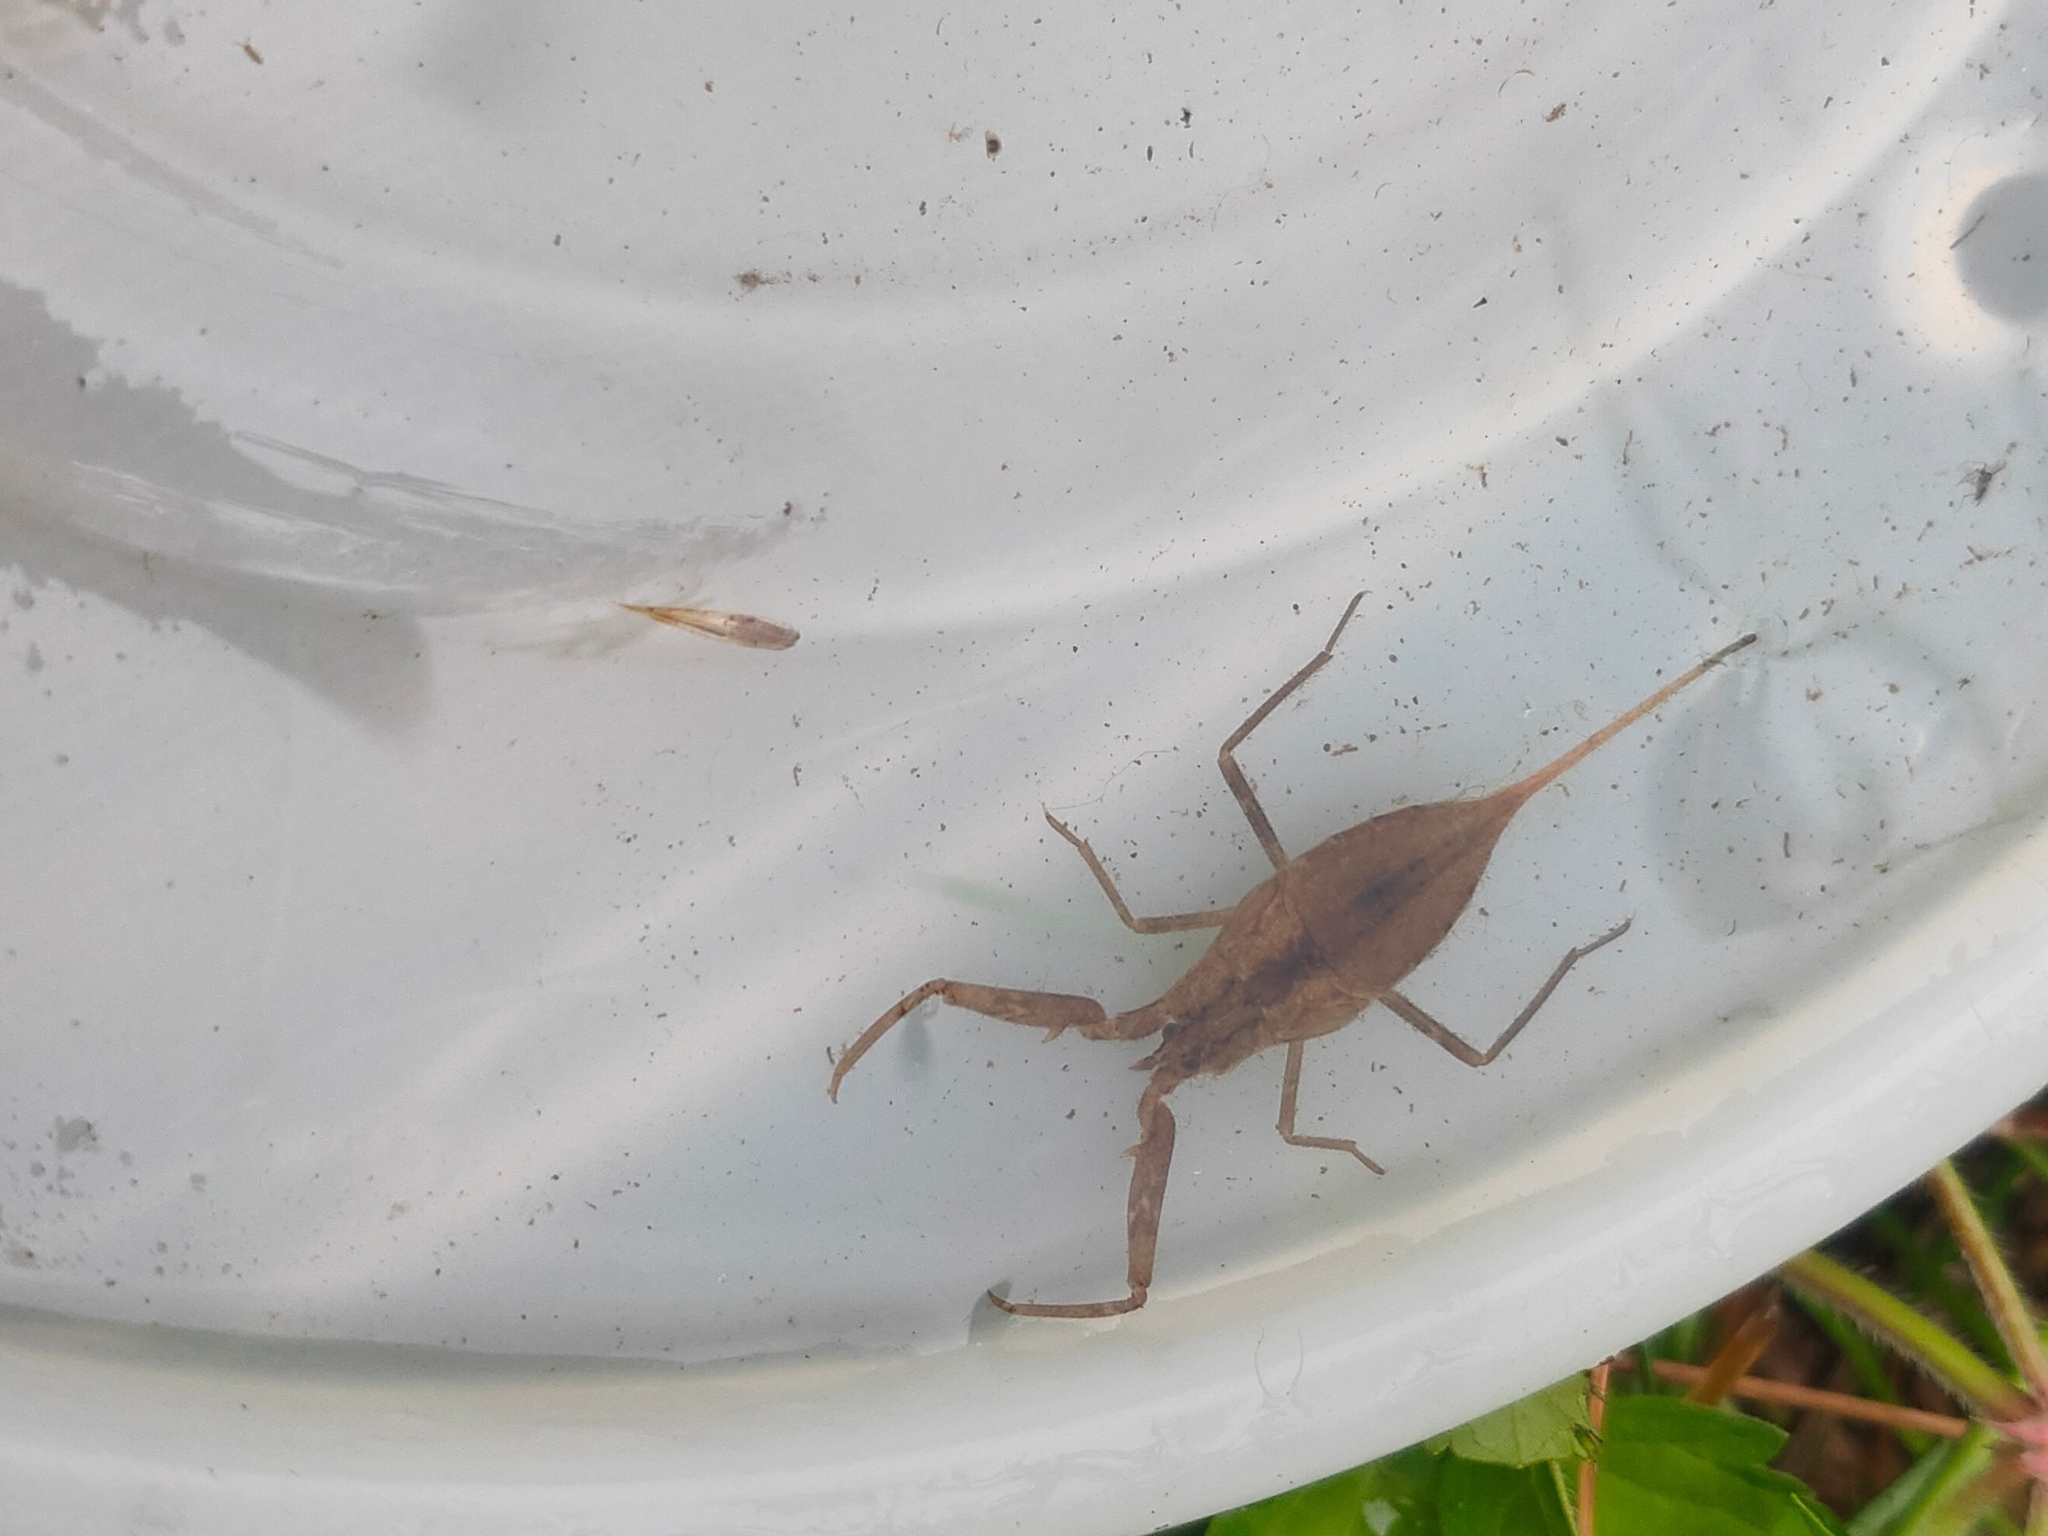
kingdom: Animalia
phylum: Arthropoda
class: Insecta
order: Hemiptera
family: Nepidae
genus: Laccotrephes
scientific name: Laccotrephes japonensis
